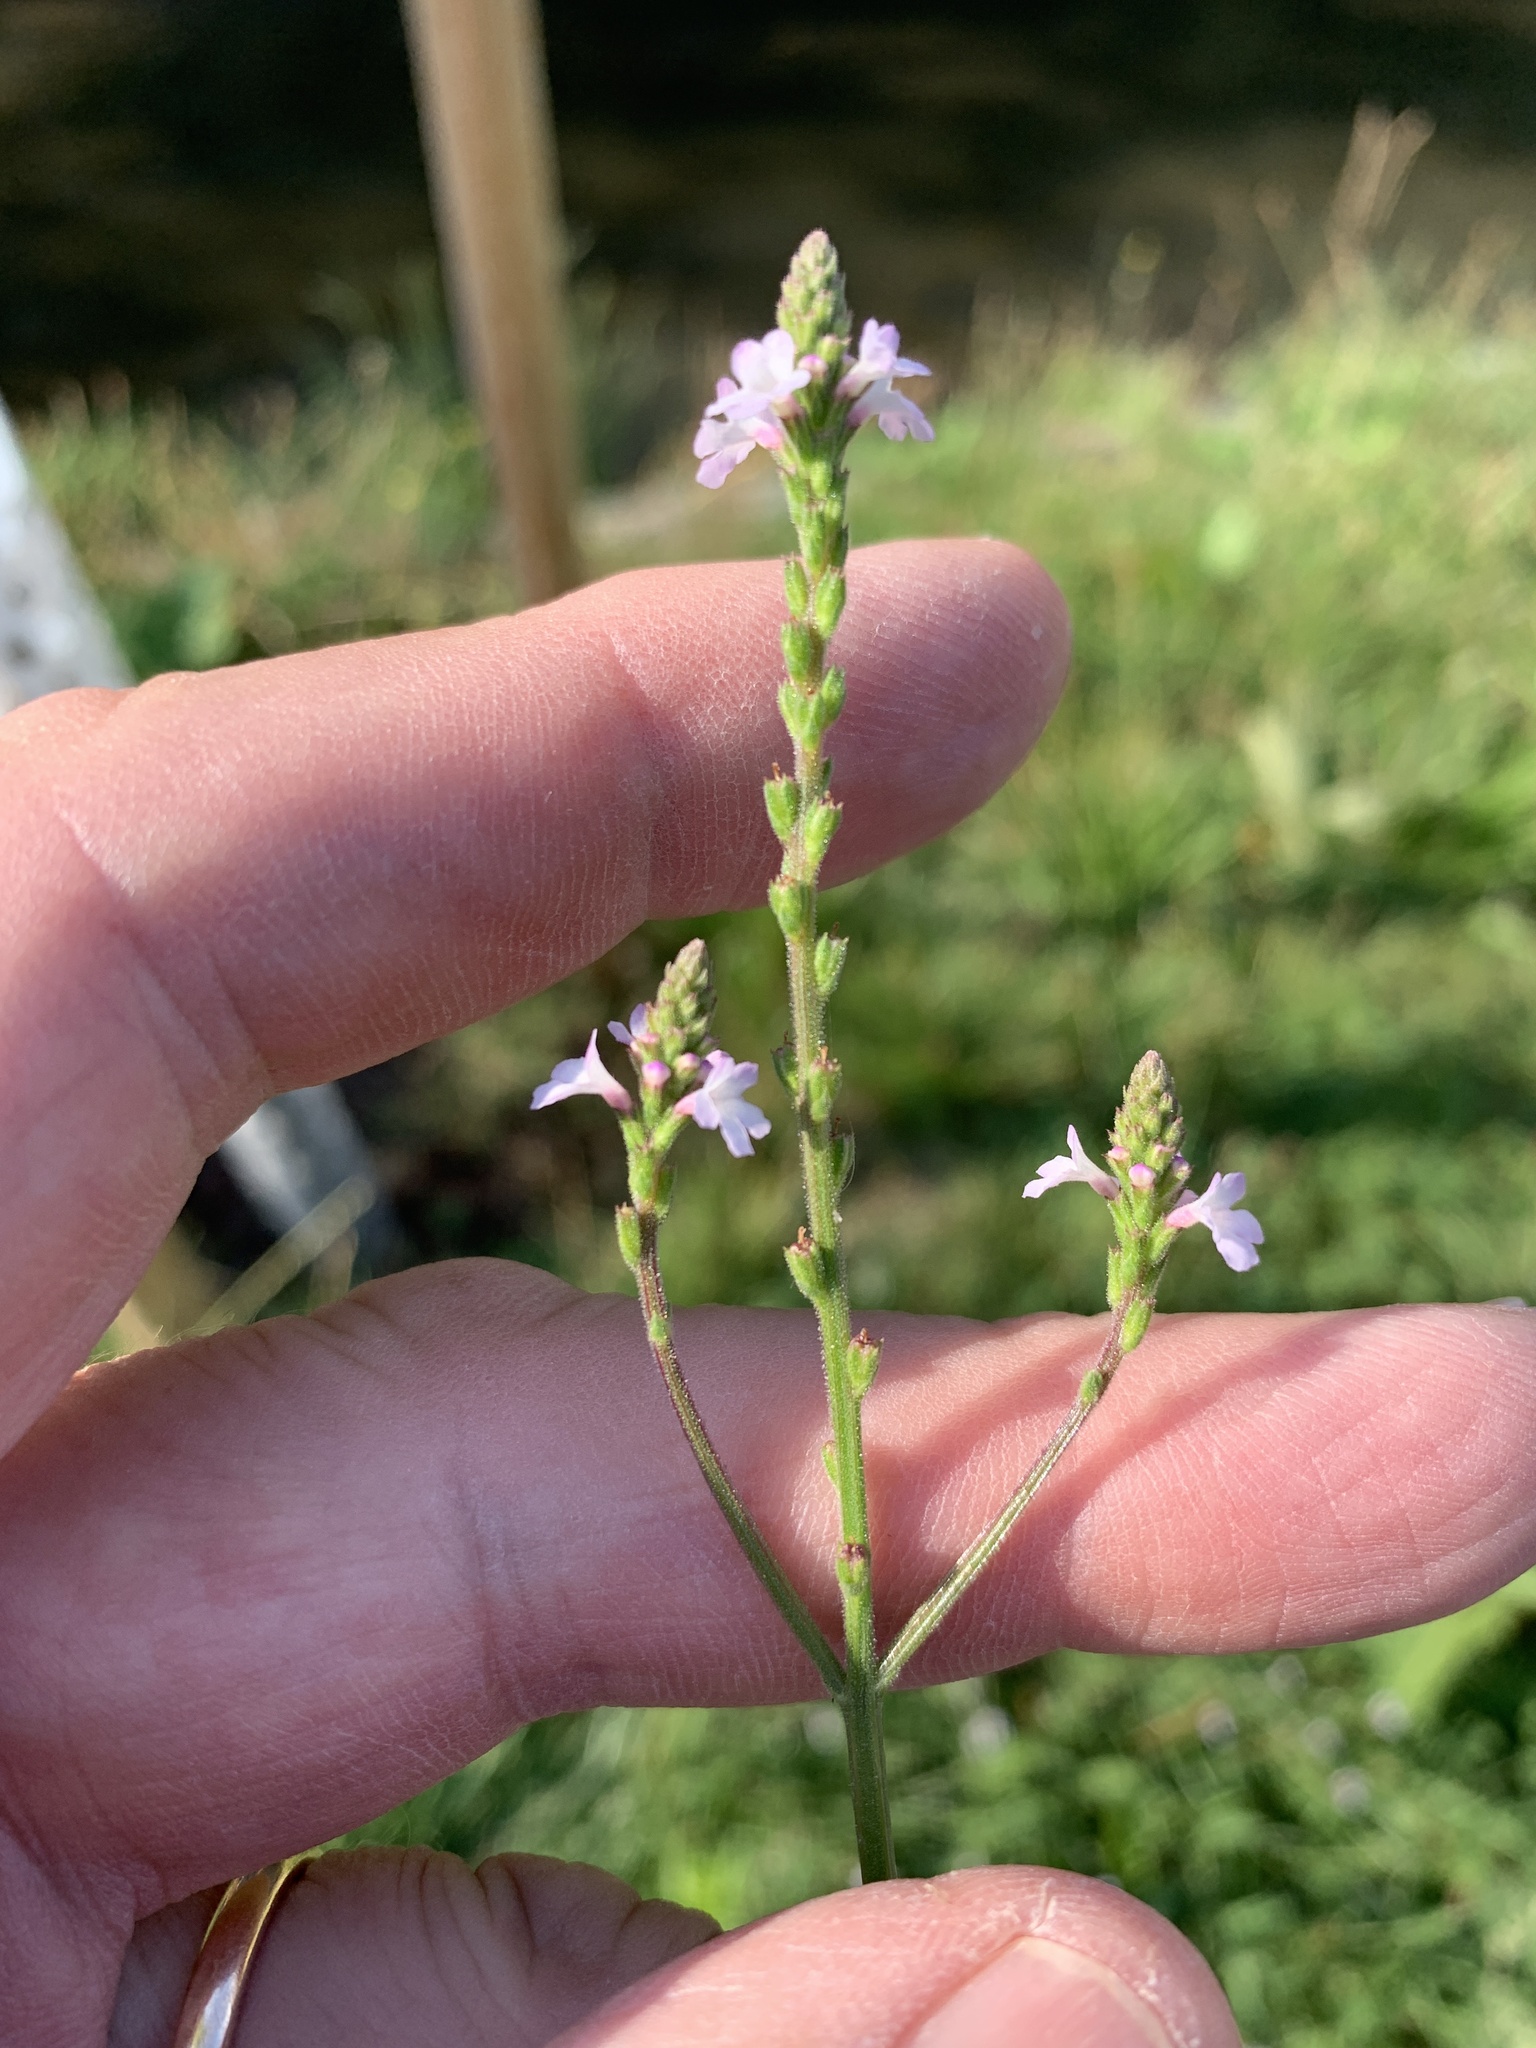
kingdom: Plantae
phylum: Tracheophyta
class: Magnoliopsida
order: Lamiales
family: Verbenaceae
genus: Verbena
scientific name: Verbena officinalis
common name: Vervain
